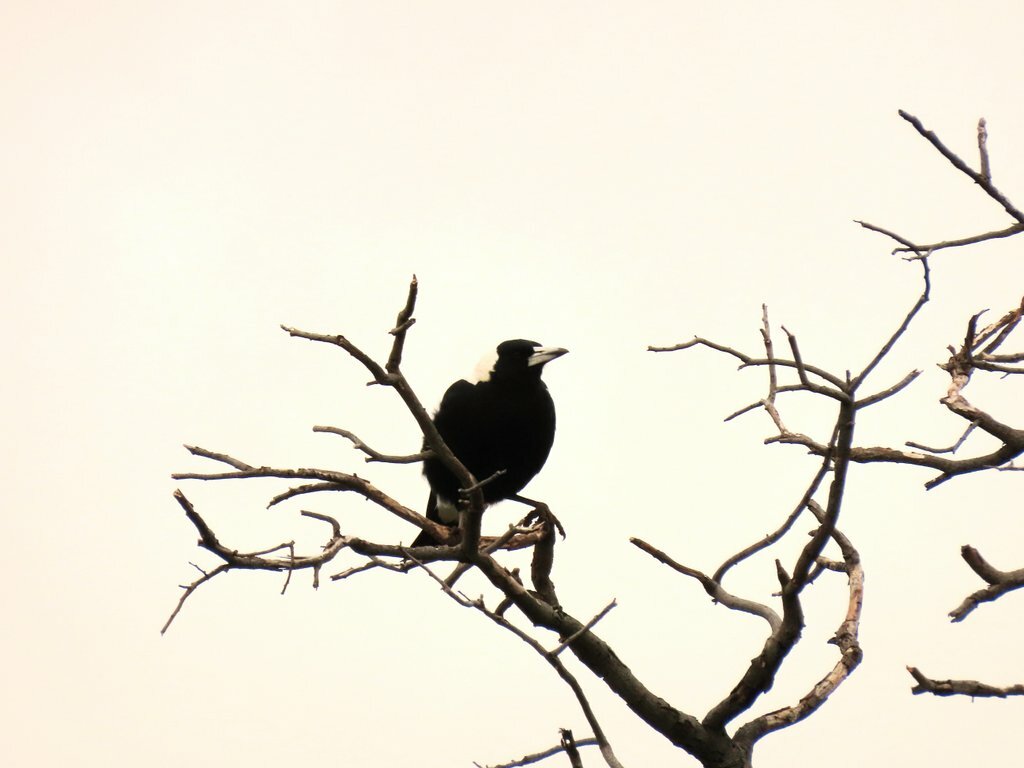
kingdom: Animalia
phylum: Chordata
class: Aves
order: Passeriformes
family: Cracticidae
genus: Gymnorhina
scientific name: Gymnorhina tibicen
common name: Australian magpie
